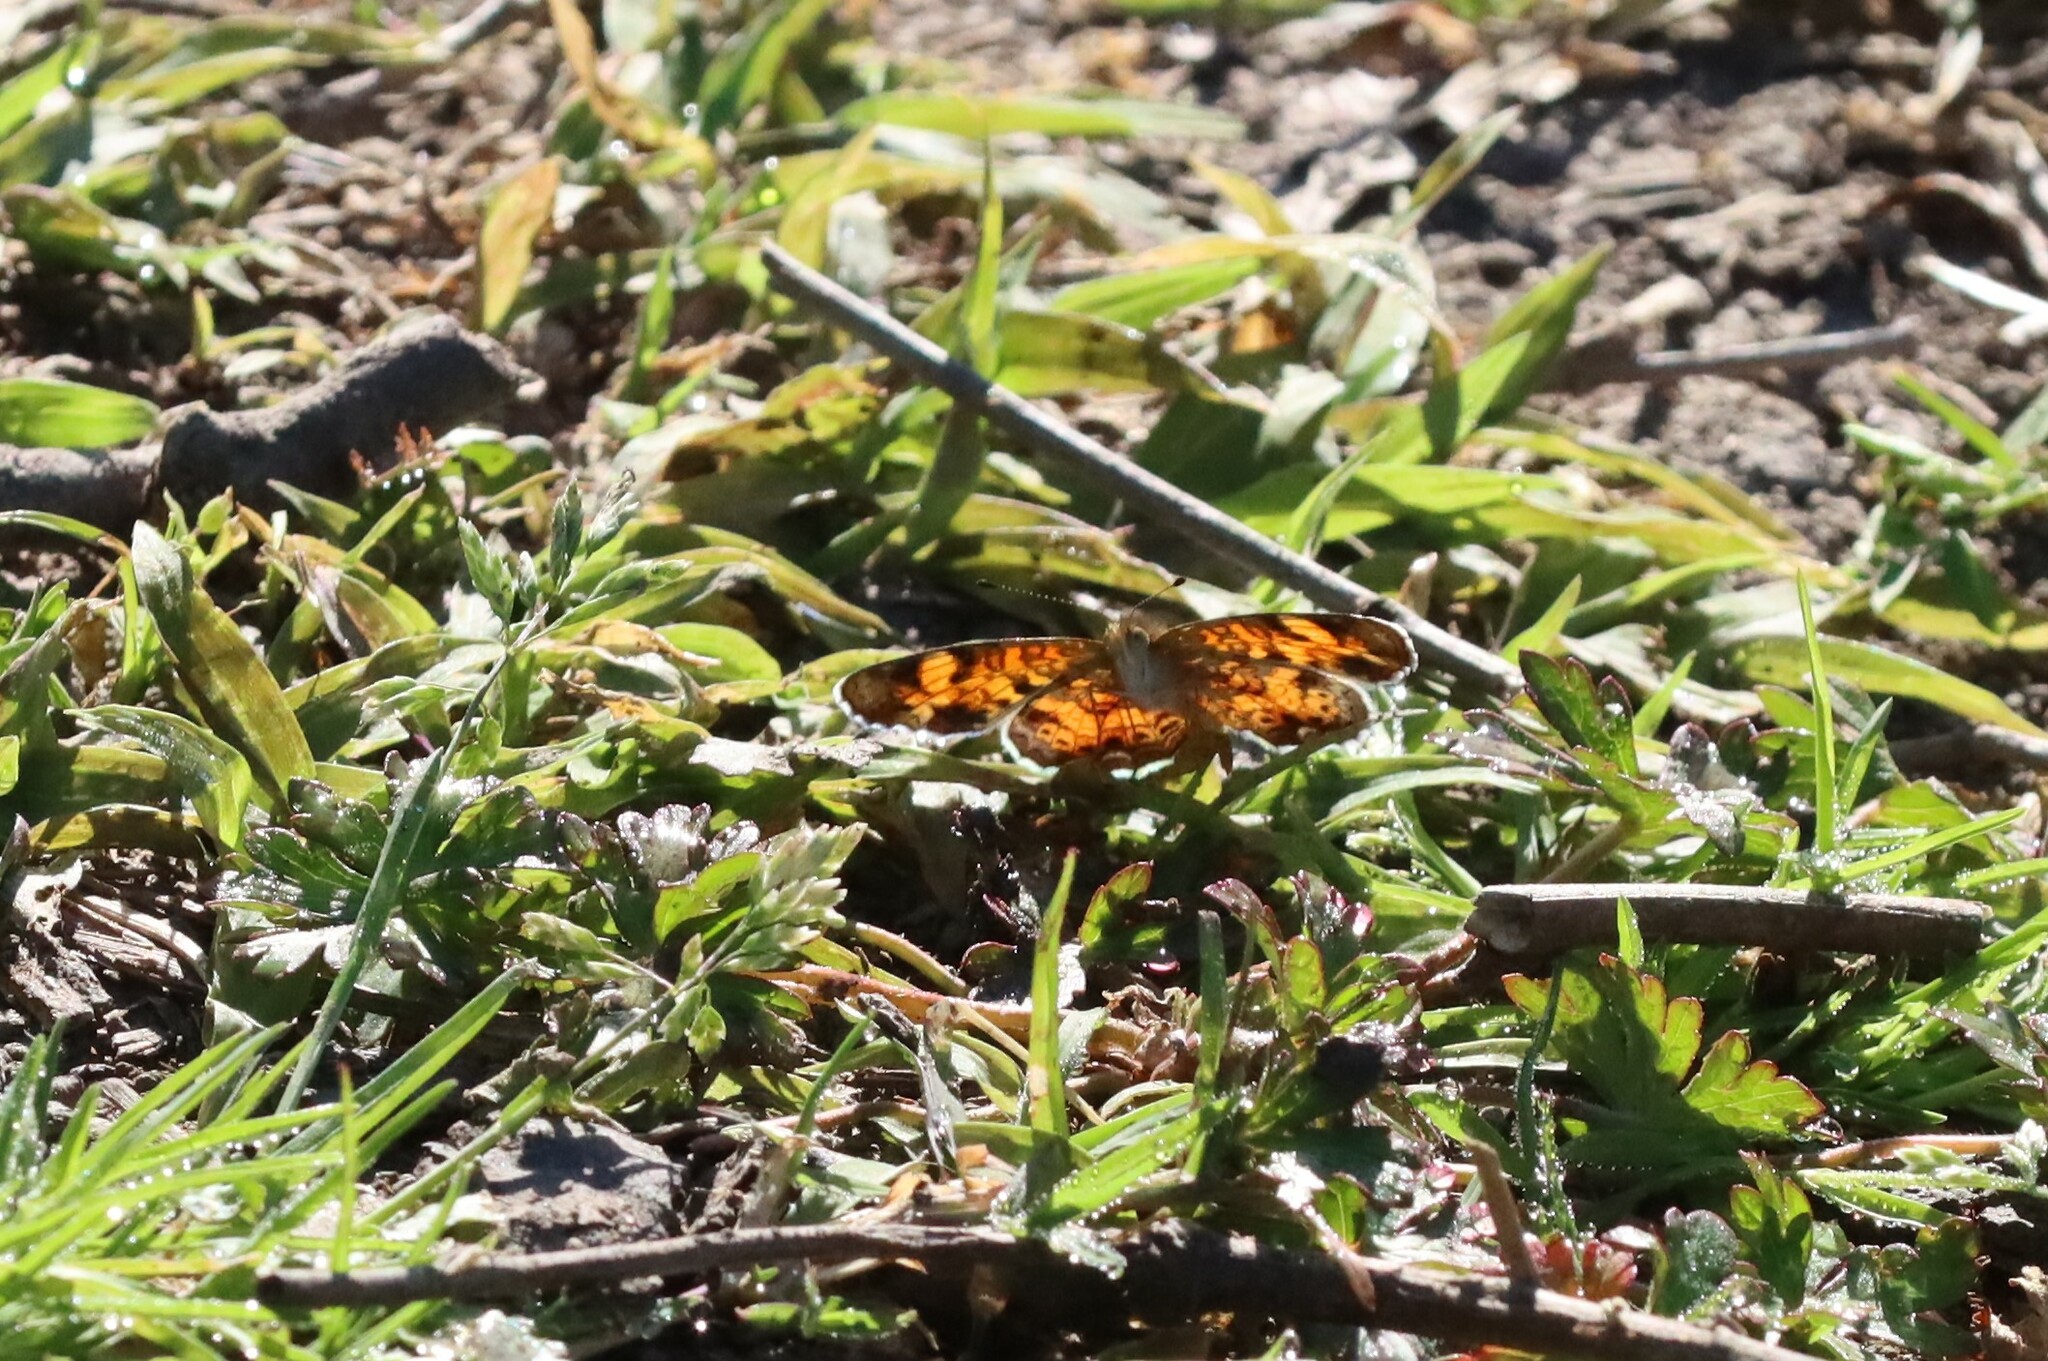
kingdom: Animalia
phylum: Arthropoda
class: Insecta
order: Lepidoptera
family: Nymphalidae
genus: Phyciodes
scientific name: Phyciodes tharos
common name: Pearl crescent
